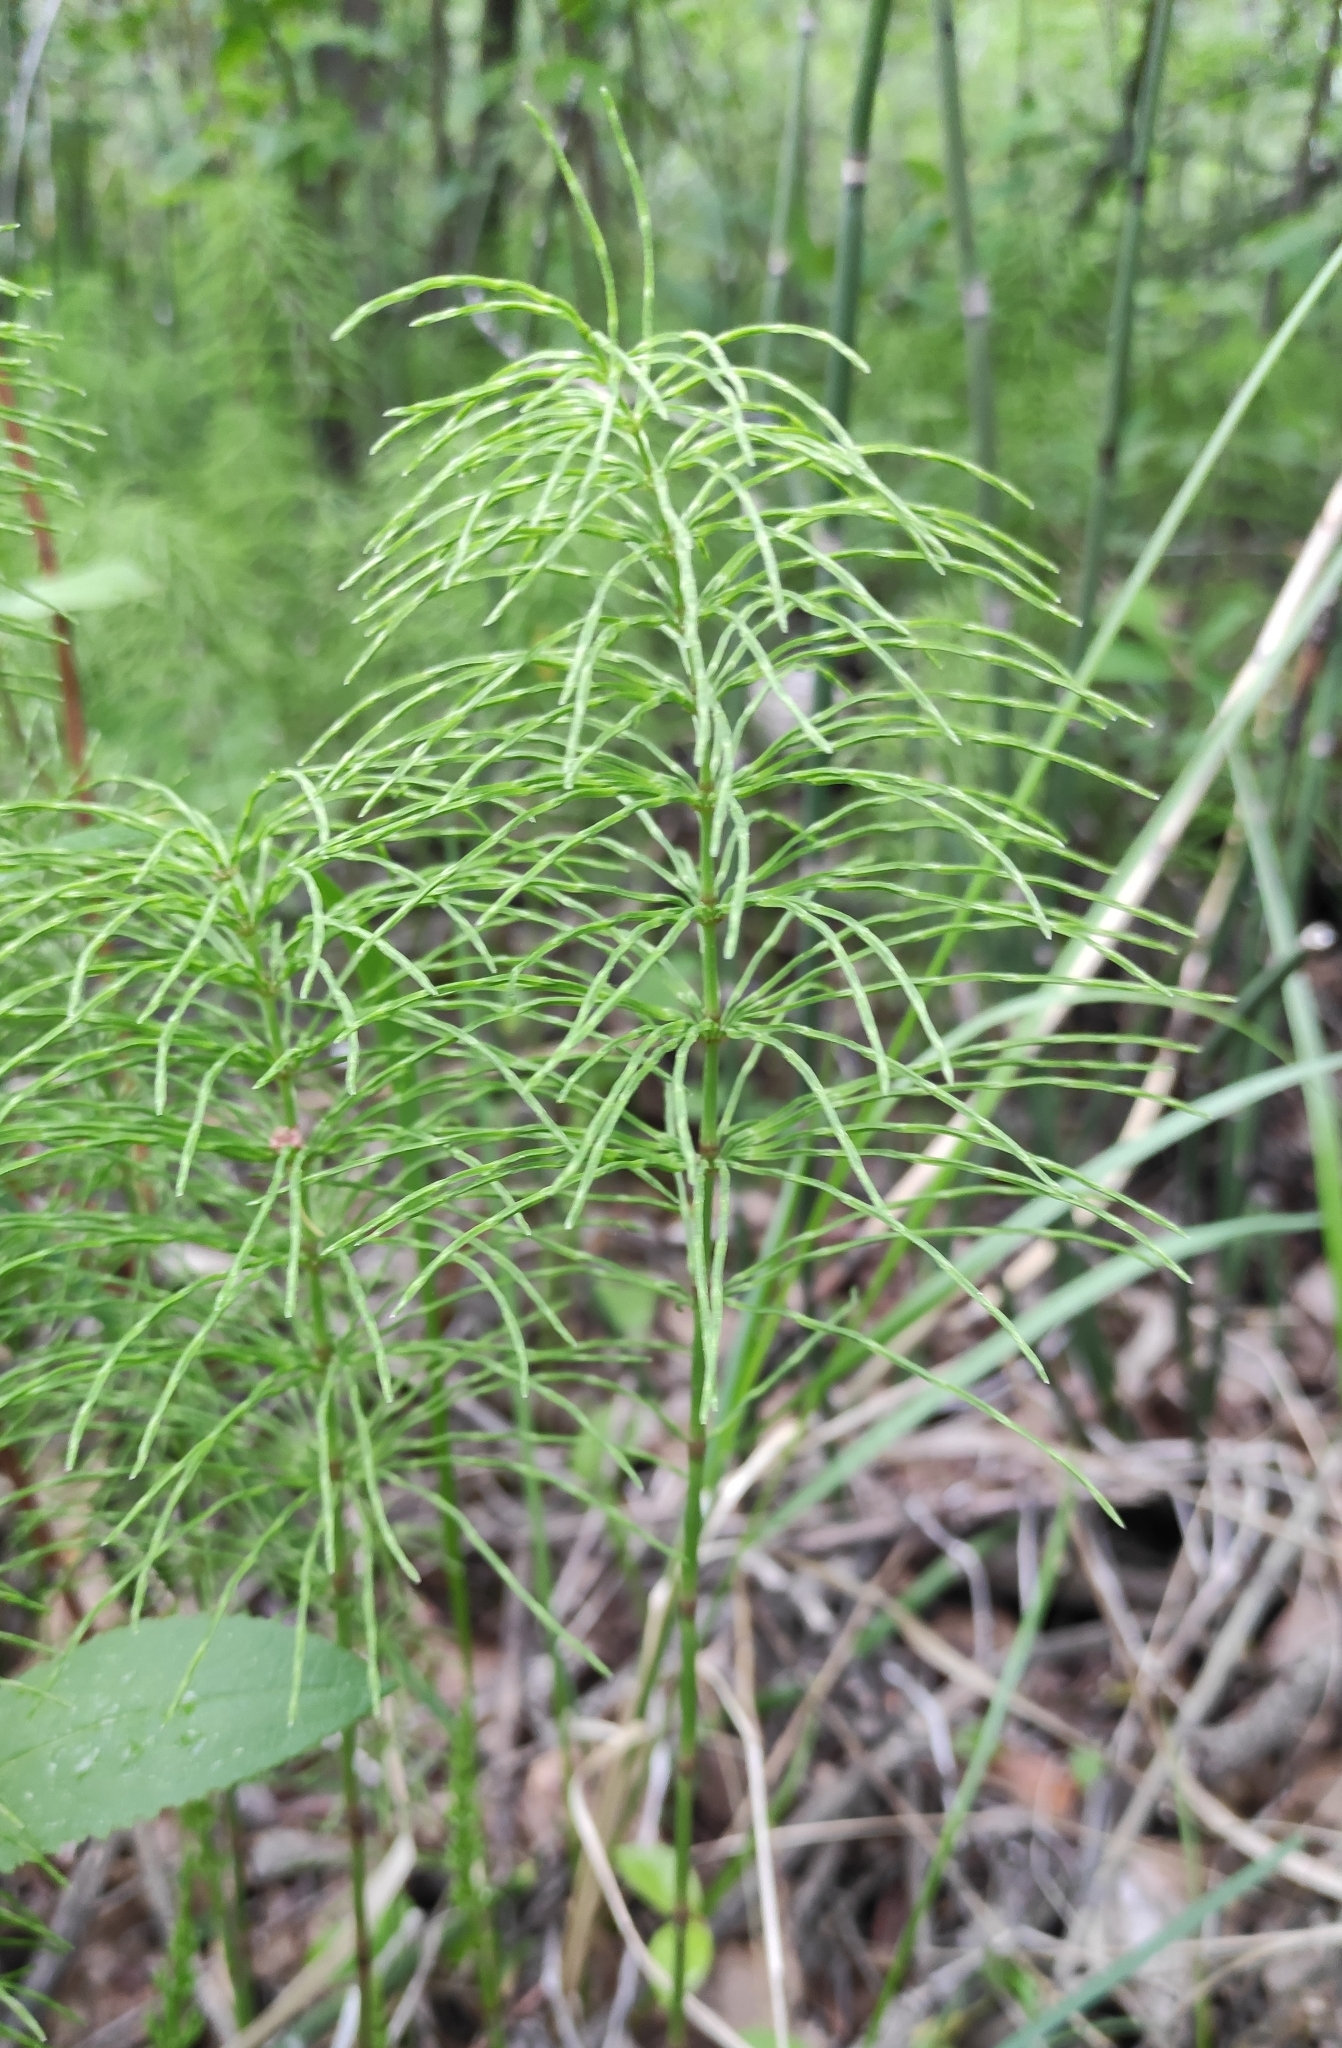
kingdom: Plantae
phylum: Tracheophyta
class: Polypodiopsida
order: Equisetales
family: Equisetaceae
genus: Equisetum
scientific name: Equisetum pratense
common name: Meadow horsetail
